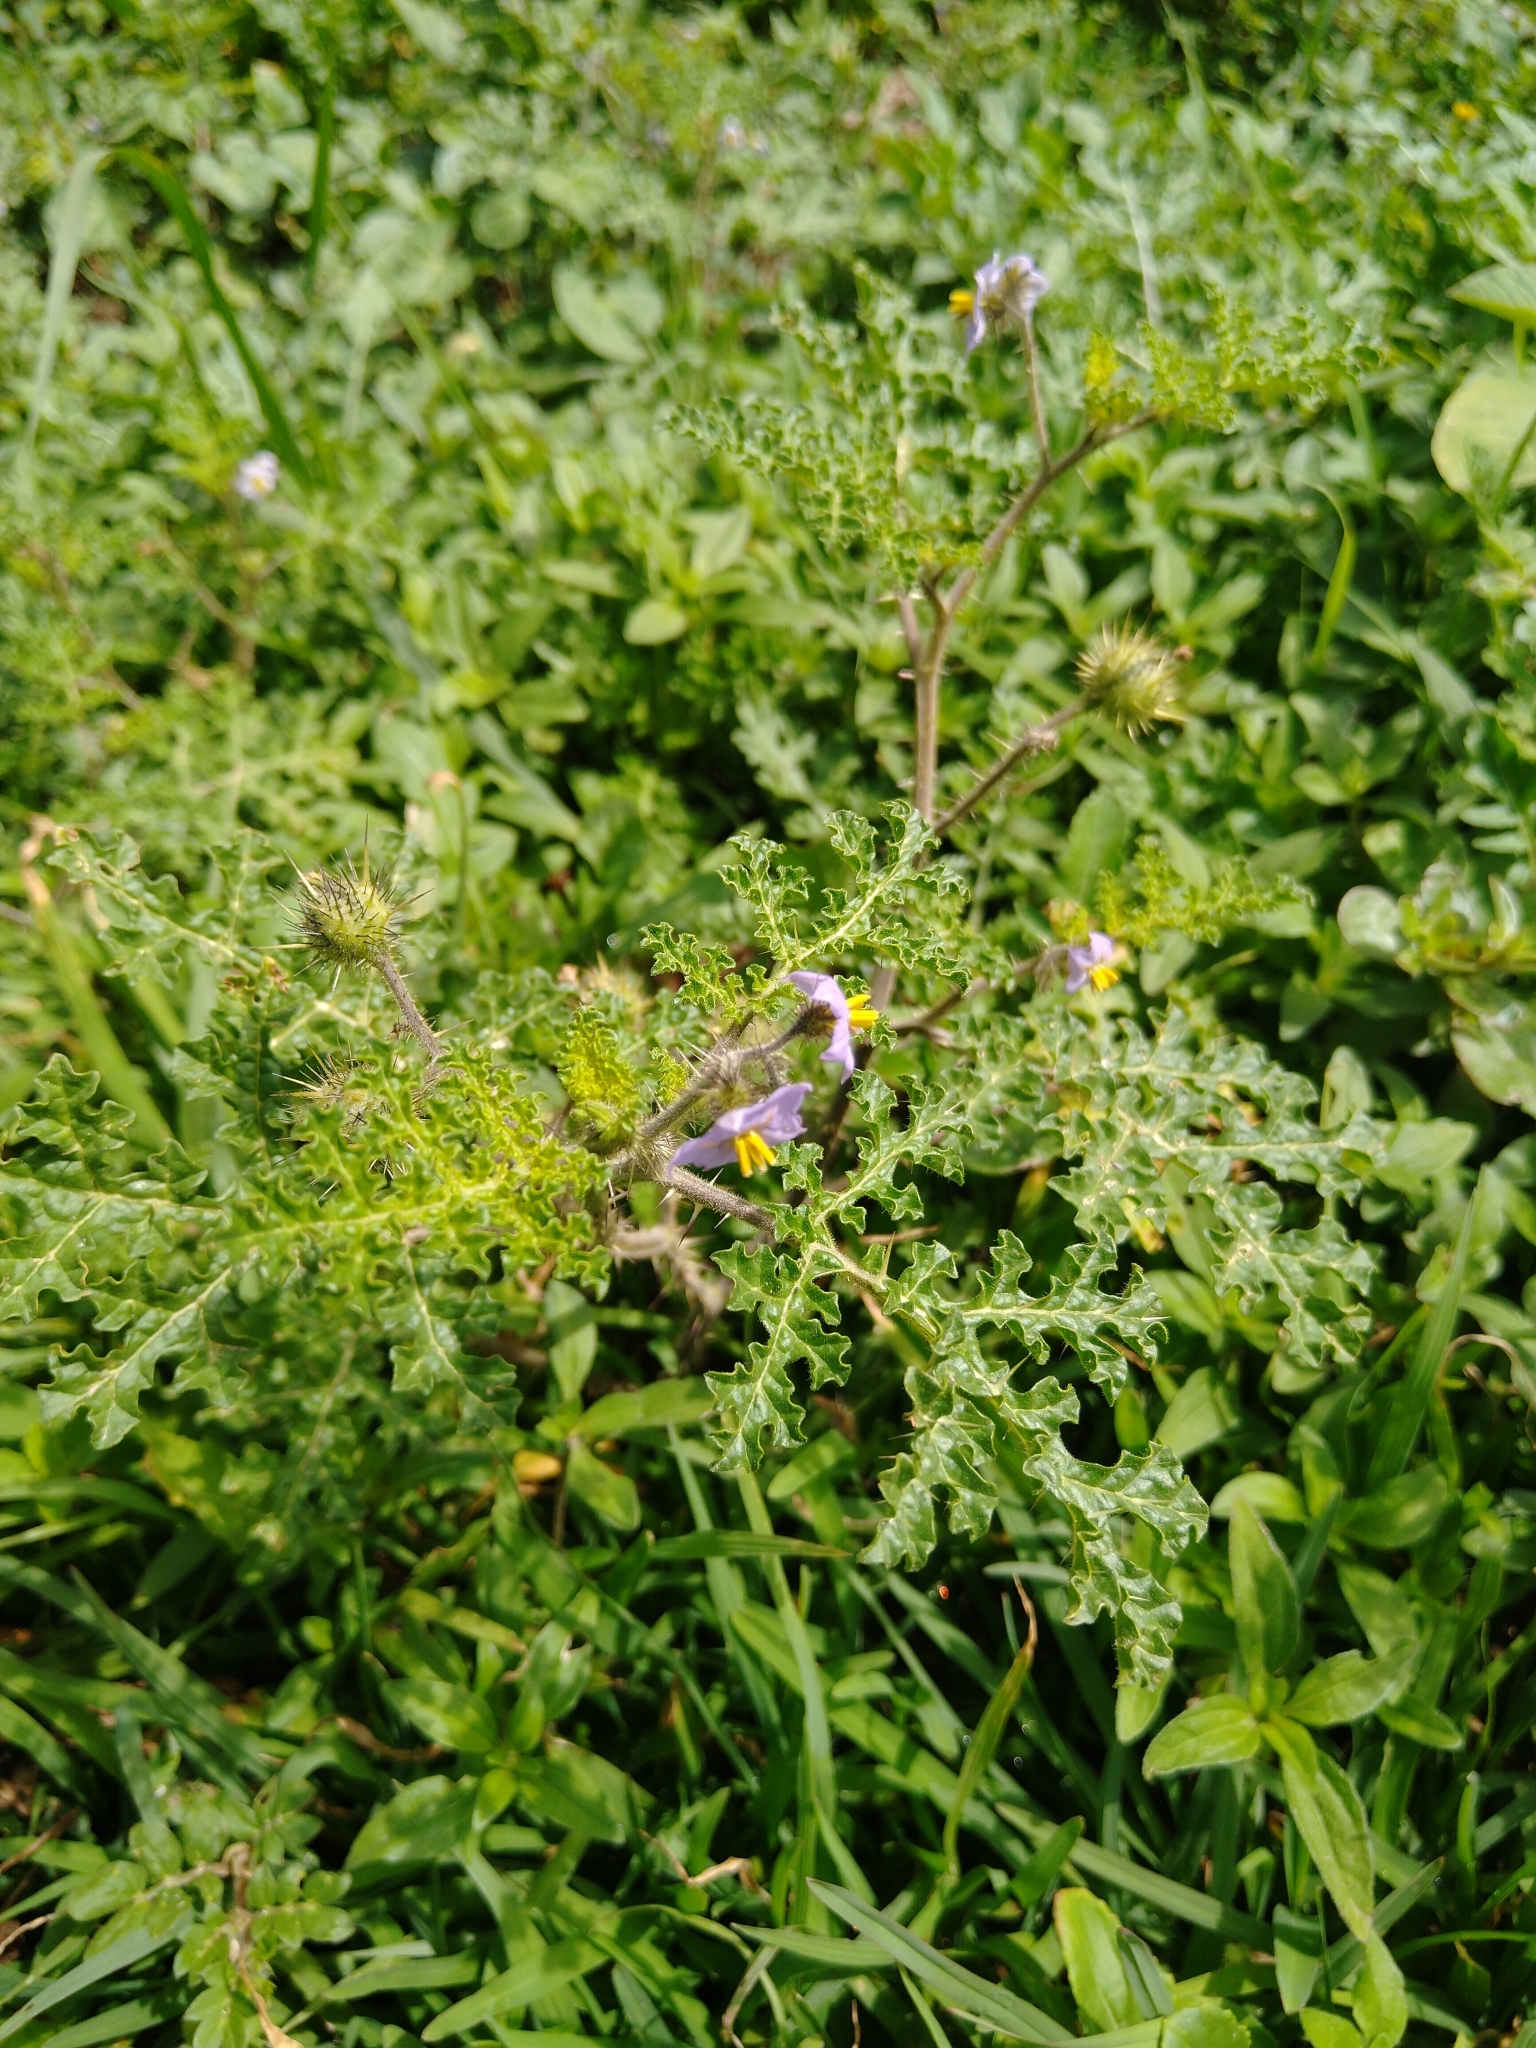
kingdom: Plantae
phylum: Tracheophyta
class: Magnoliopsida
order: Solanales
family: Solanaceae
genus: Solanum
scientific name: Solanum heterodoxum
